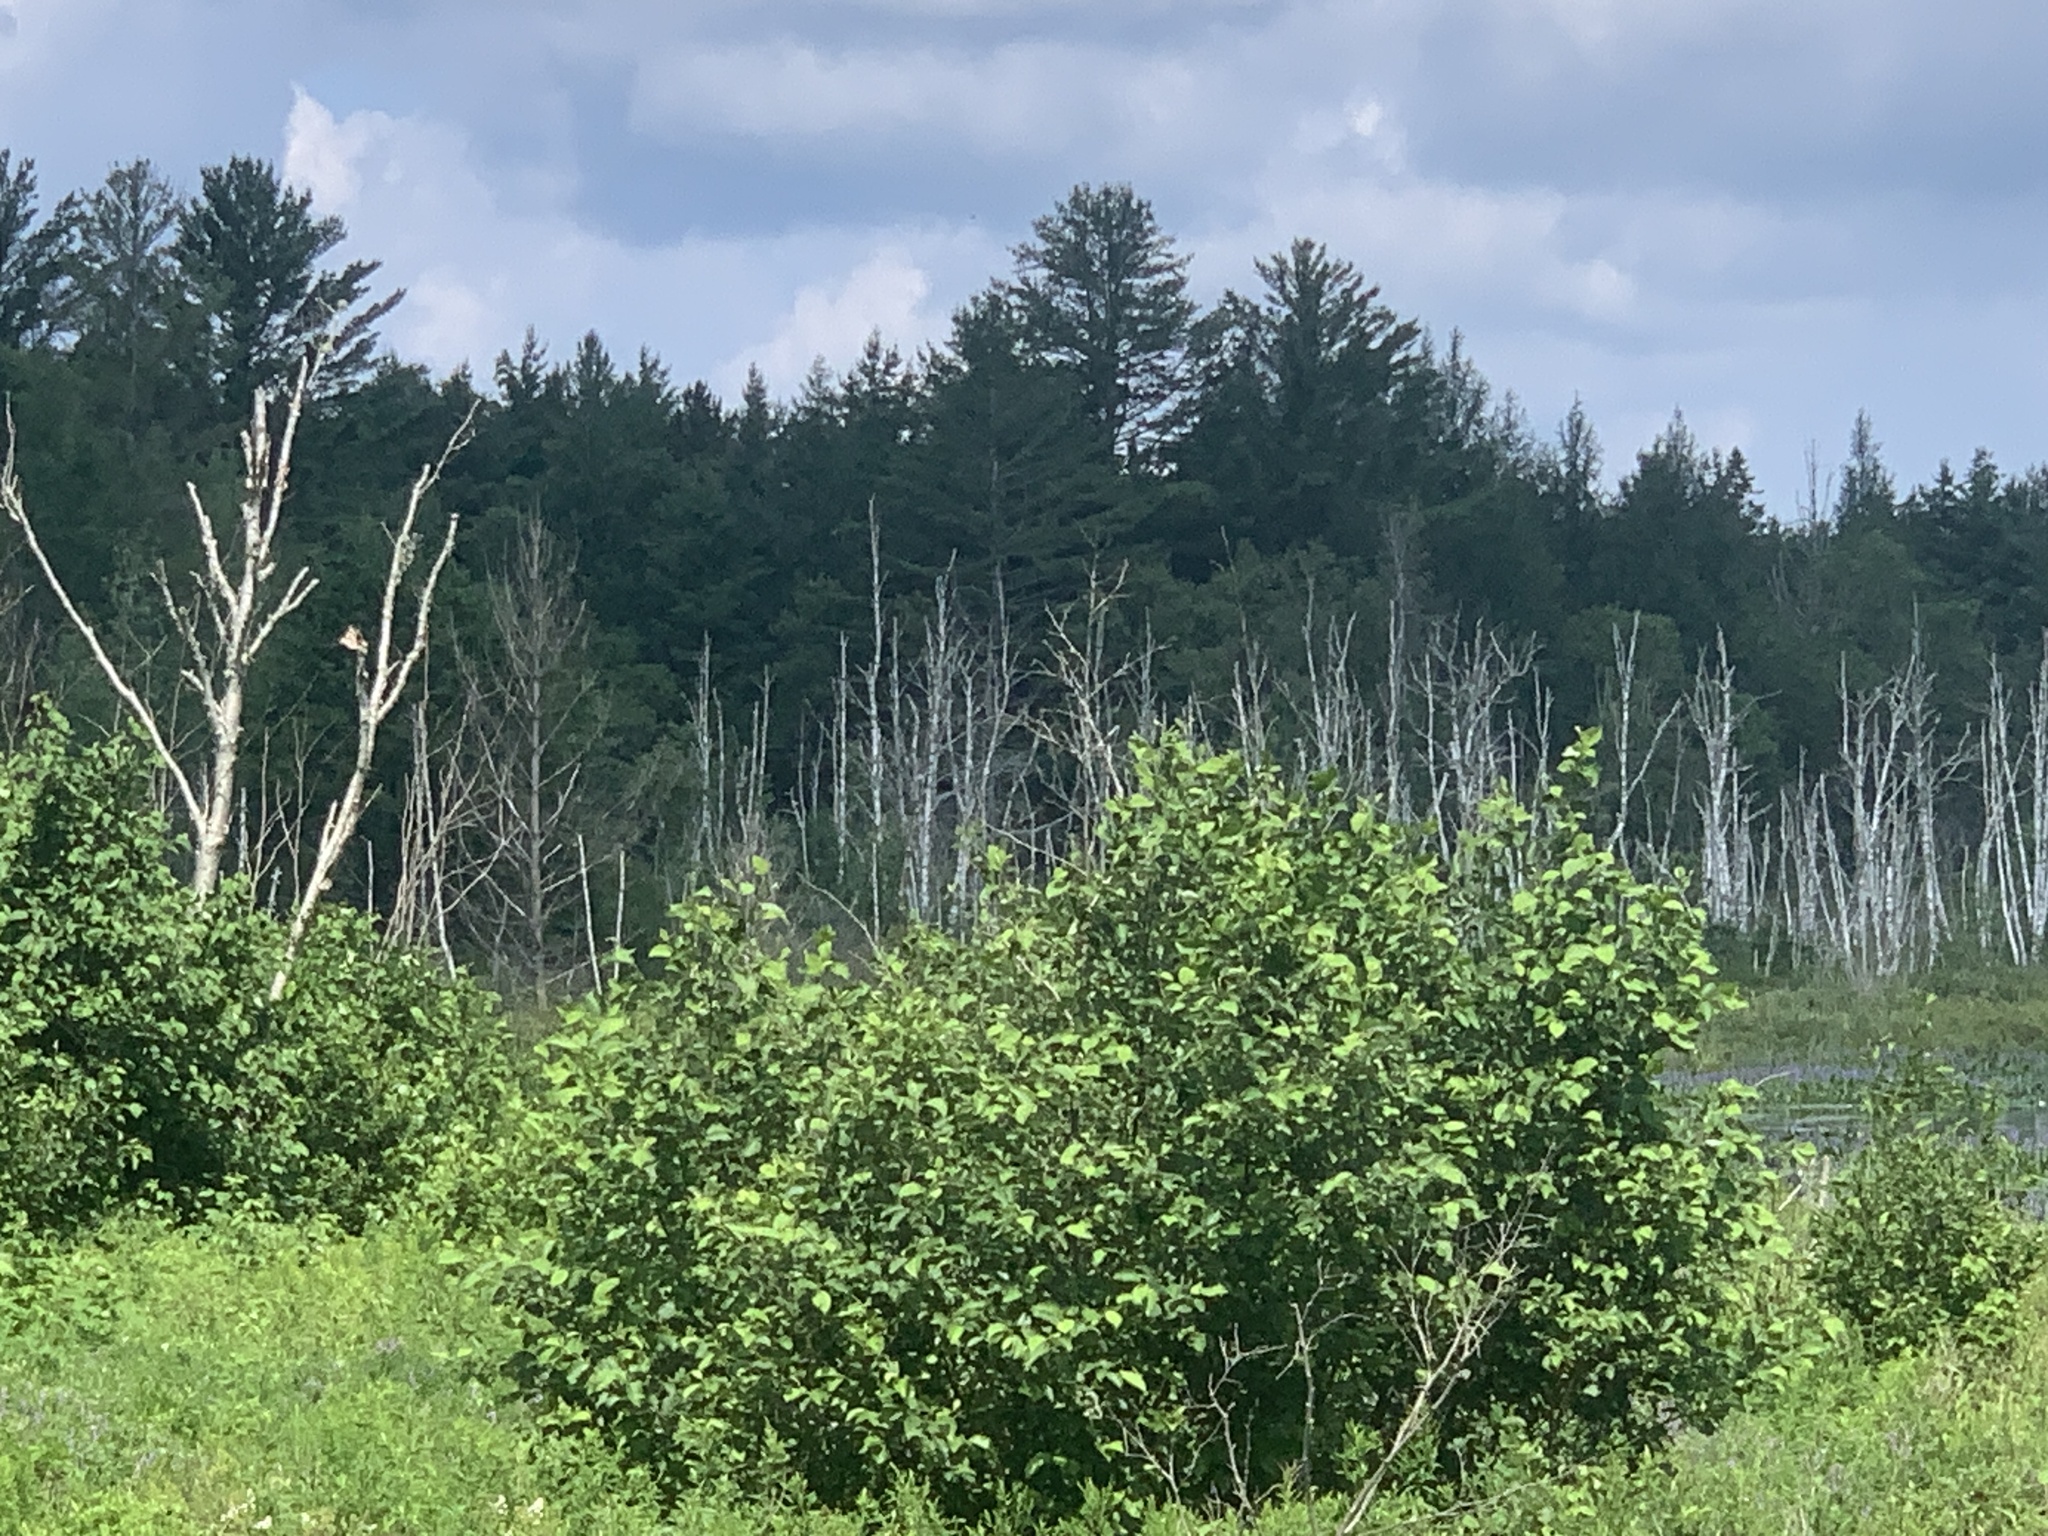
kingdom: Plantae
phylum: Tracheophyta
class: Pinopsida
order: Pinales
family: Pinaceae
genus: Pinus
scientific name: Pinus strobus
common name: Weymouth pine
